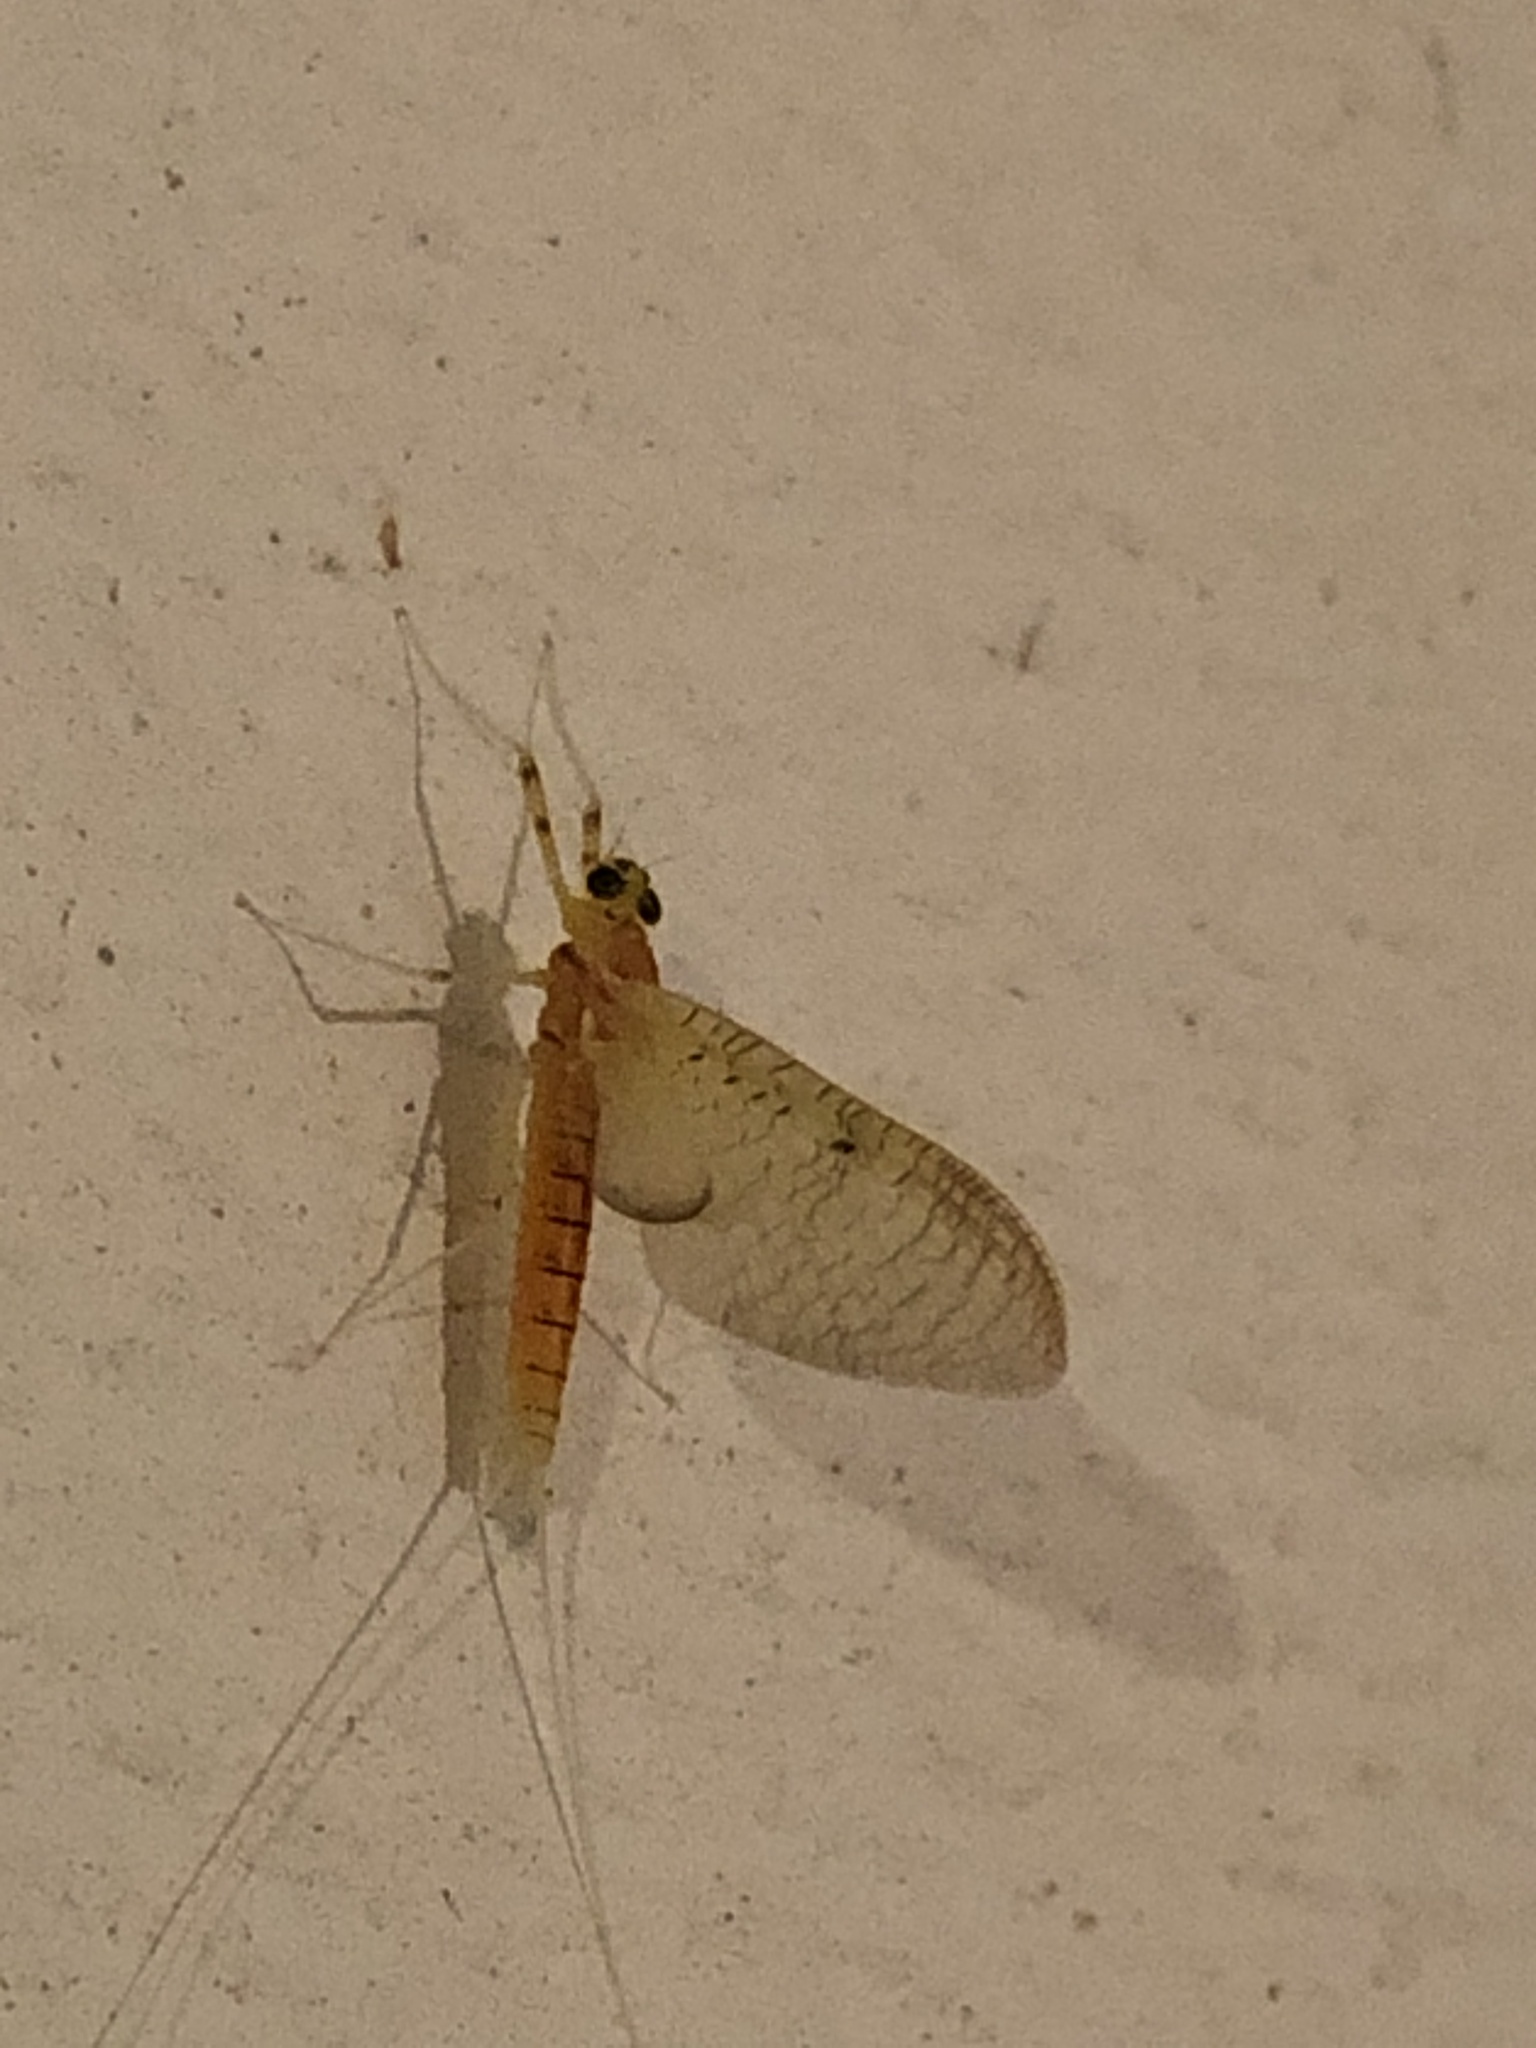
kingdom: Animalia
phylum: Arthropoda
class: Insecta
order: Ephemeroptera
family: Heptageniidae
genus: Stenacron
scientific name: Stenacron interpunctatum
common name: Orange cahill
